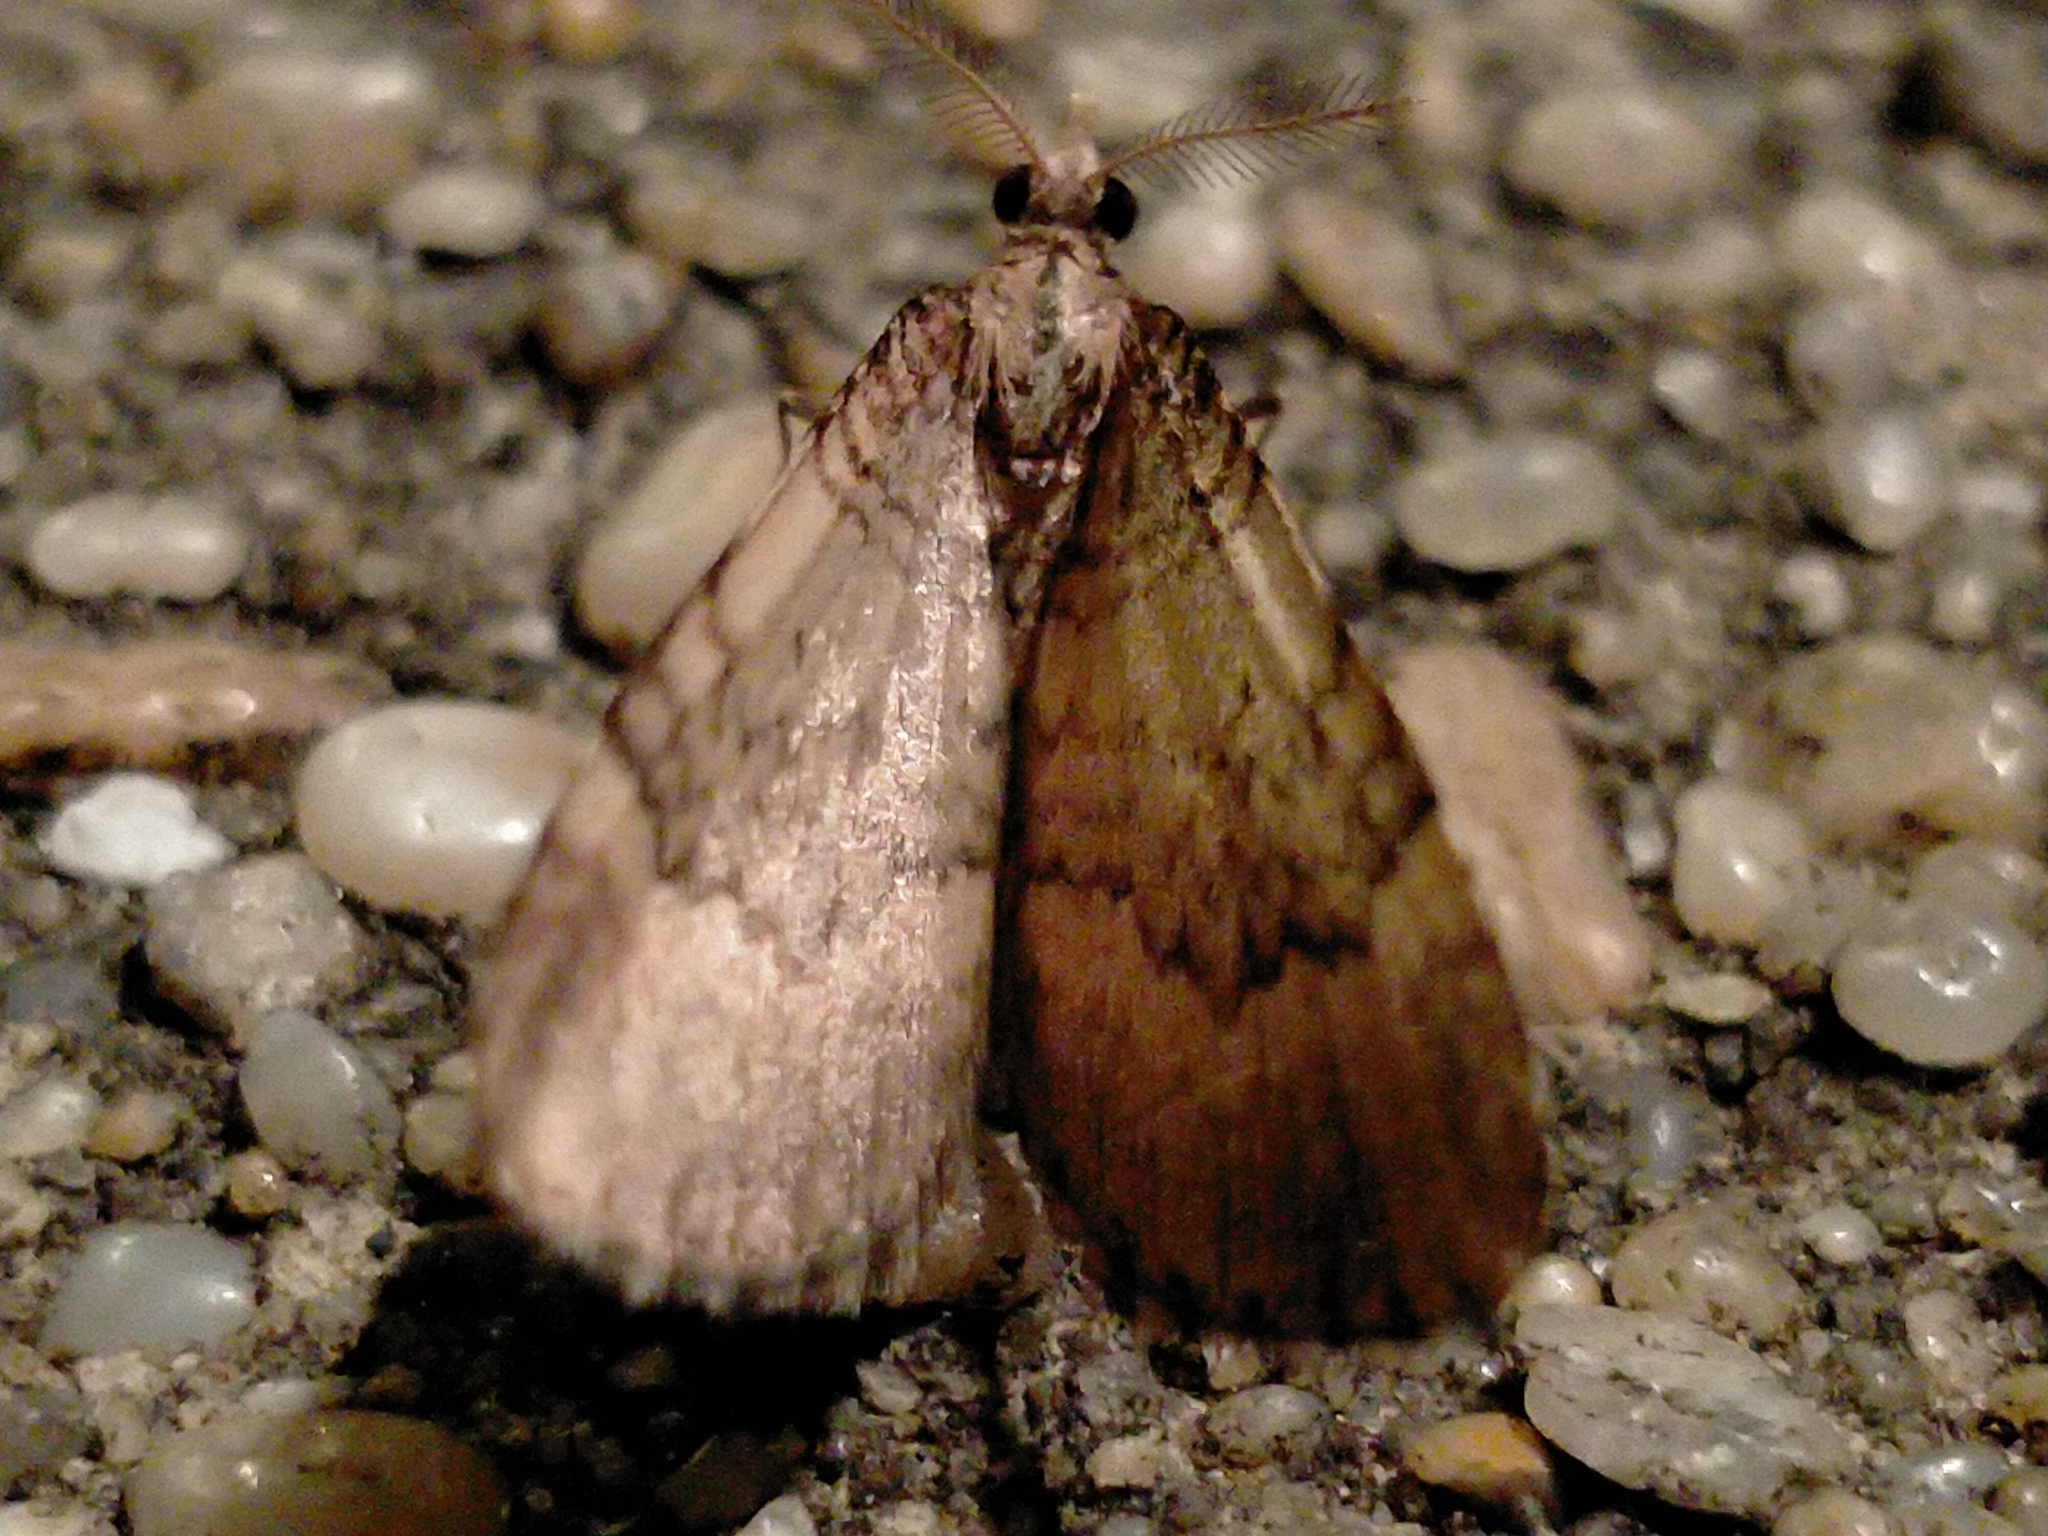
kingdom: Animalia
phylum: Arthropoda
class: Insecta
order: Lepidoptera
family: Geometridae
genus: Asaphodes
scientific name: Asaphodes aegrota
